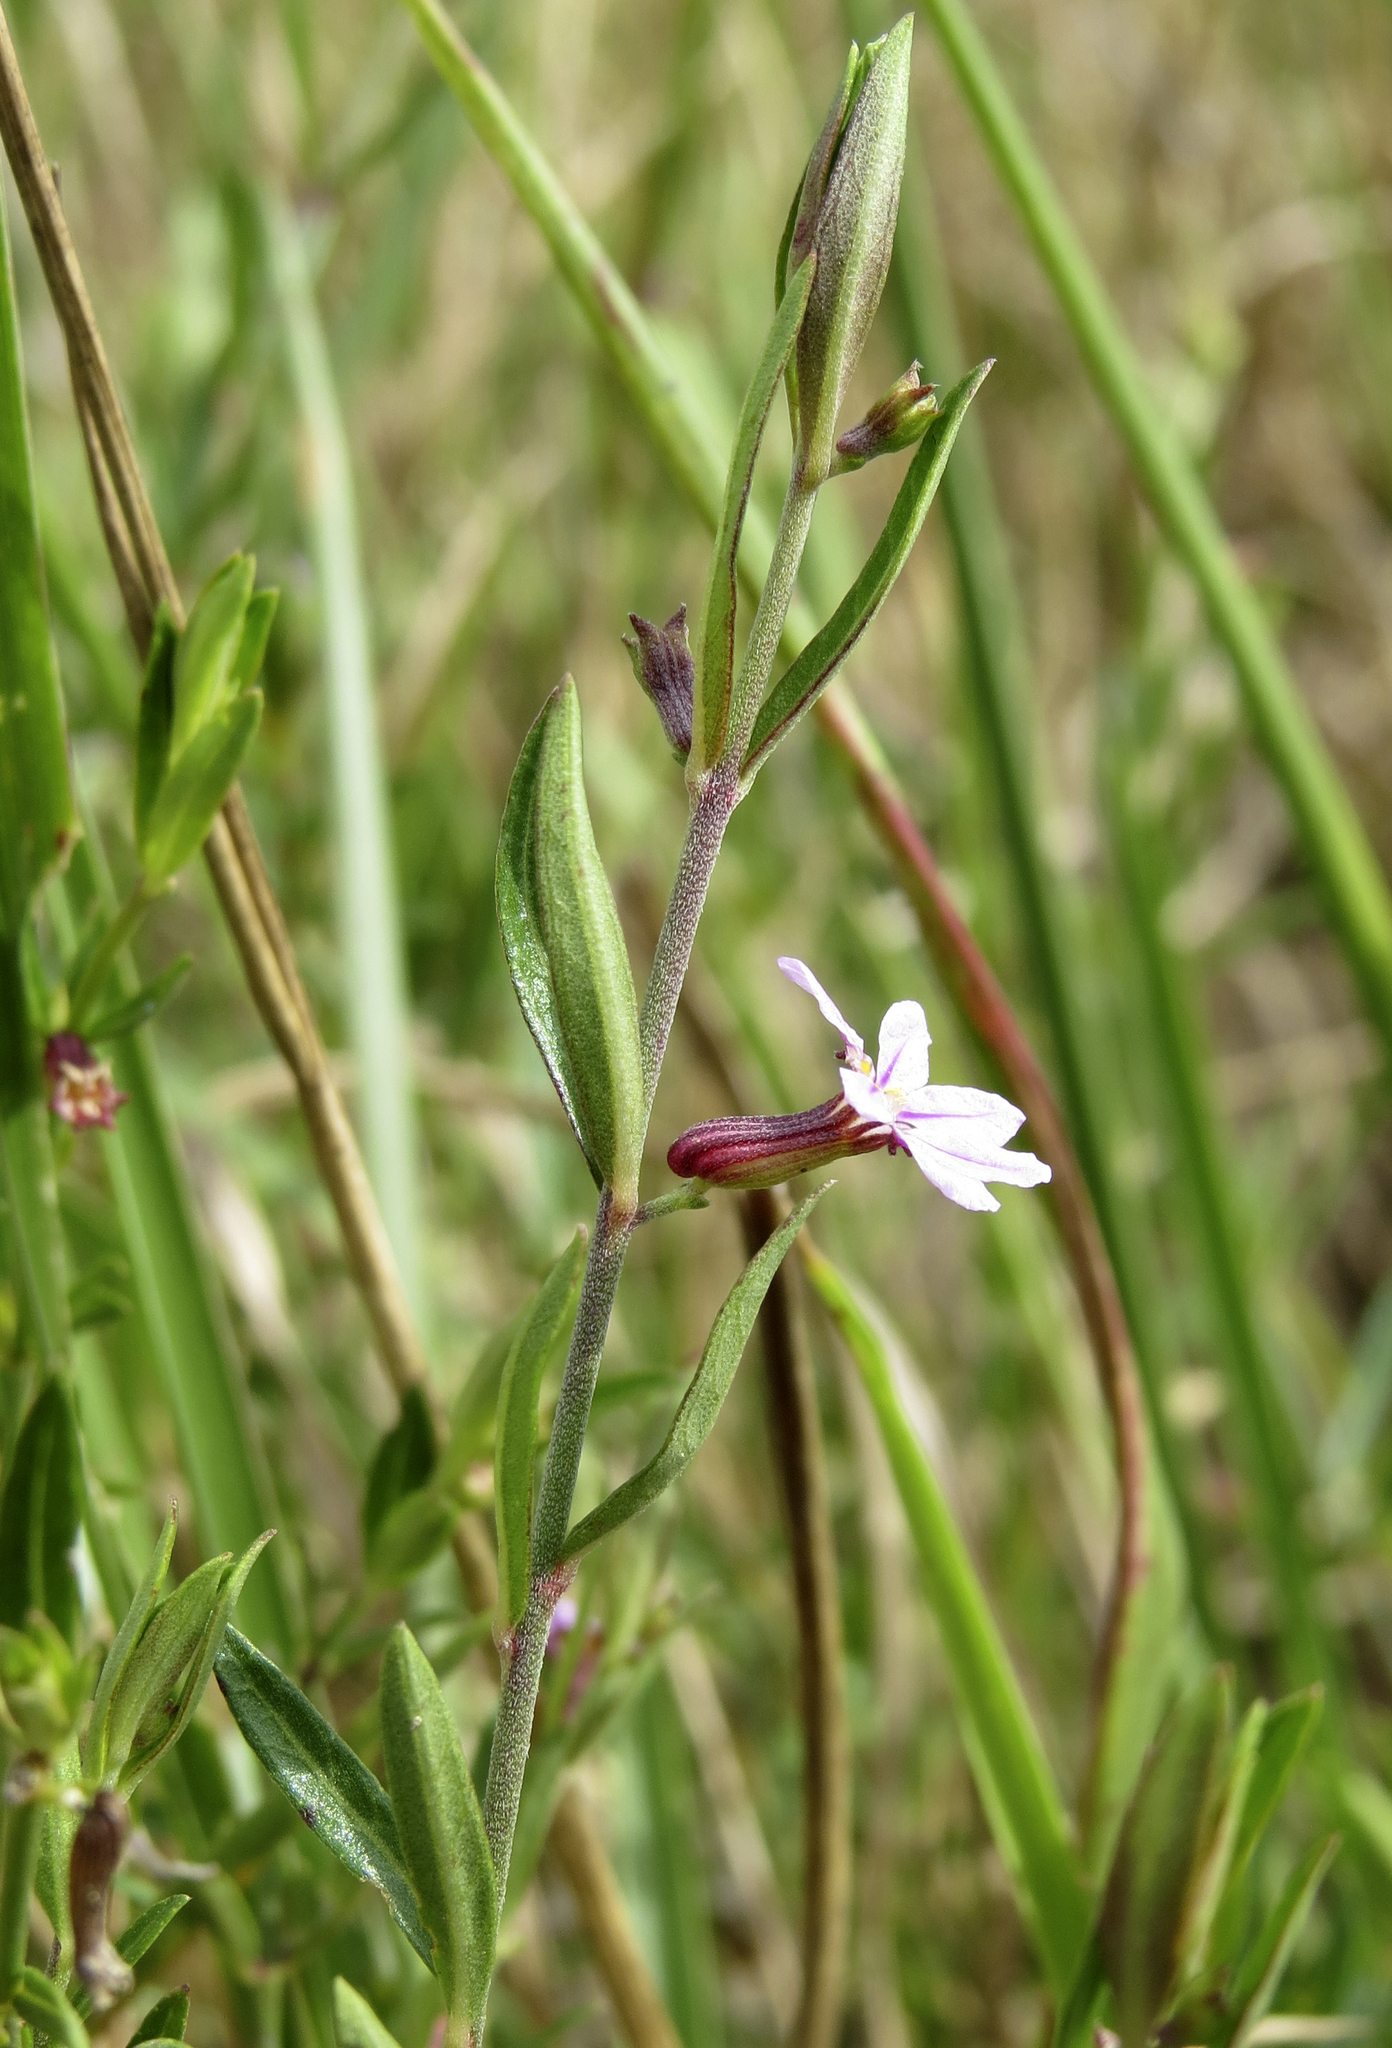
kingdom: Plantae
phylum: Tracheophyta
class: Magnoliopsida
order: Myrtales
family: Lythraceae
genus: Cuphea
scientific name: Cuphea odonellii
